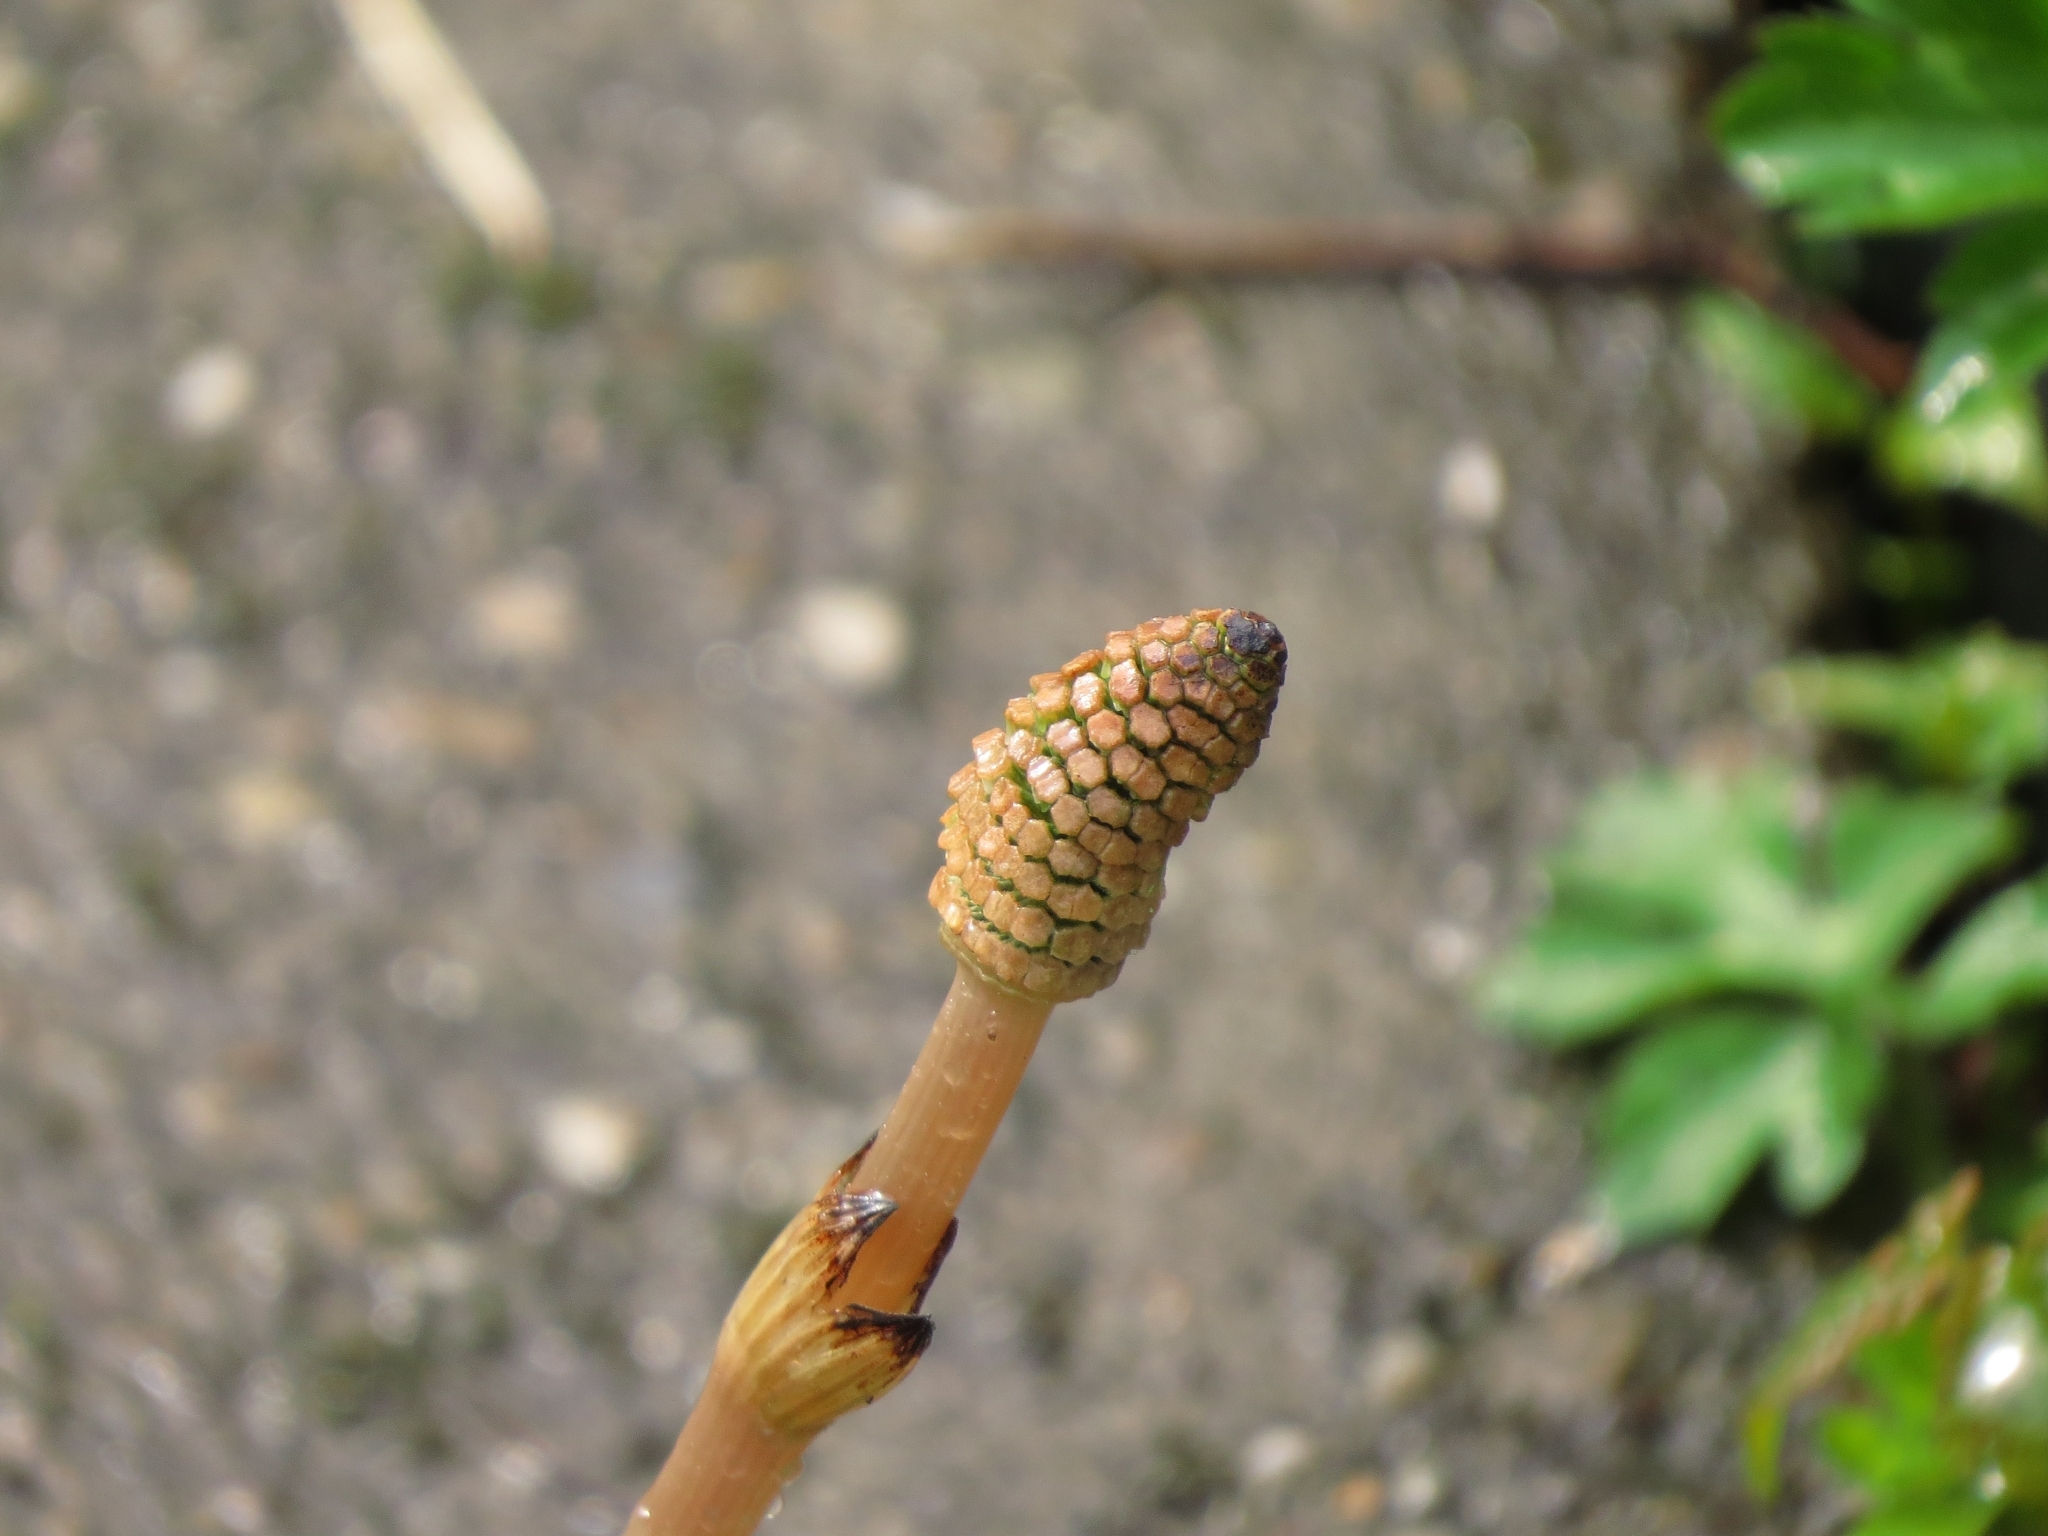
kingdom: Plantae
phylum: Tracheophyta
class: Polypodiopsida
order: Equisetales
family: Equisetaceae
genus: Equisetum
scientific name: Equisetum arvense
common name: Field horsetail
